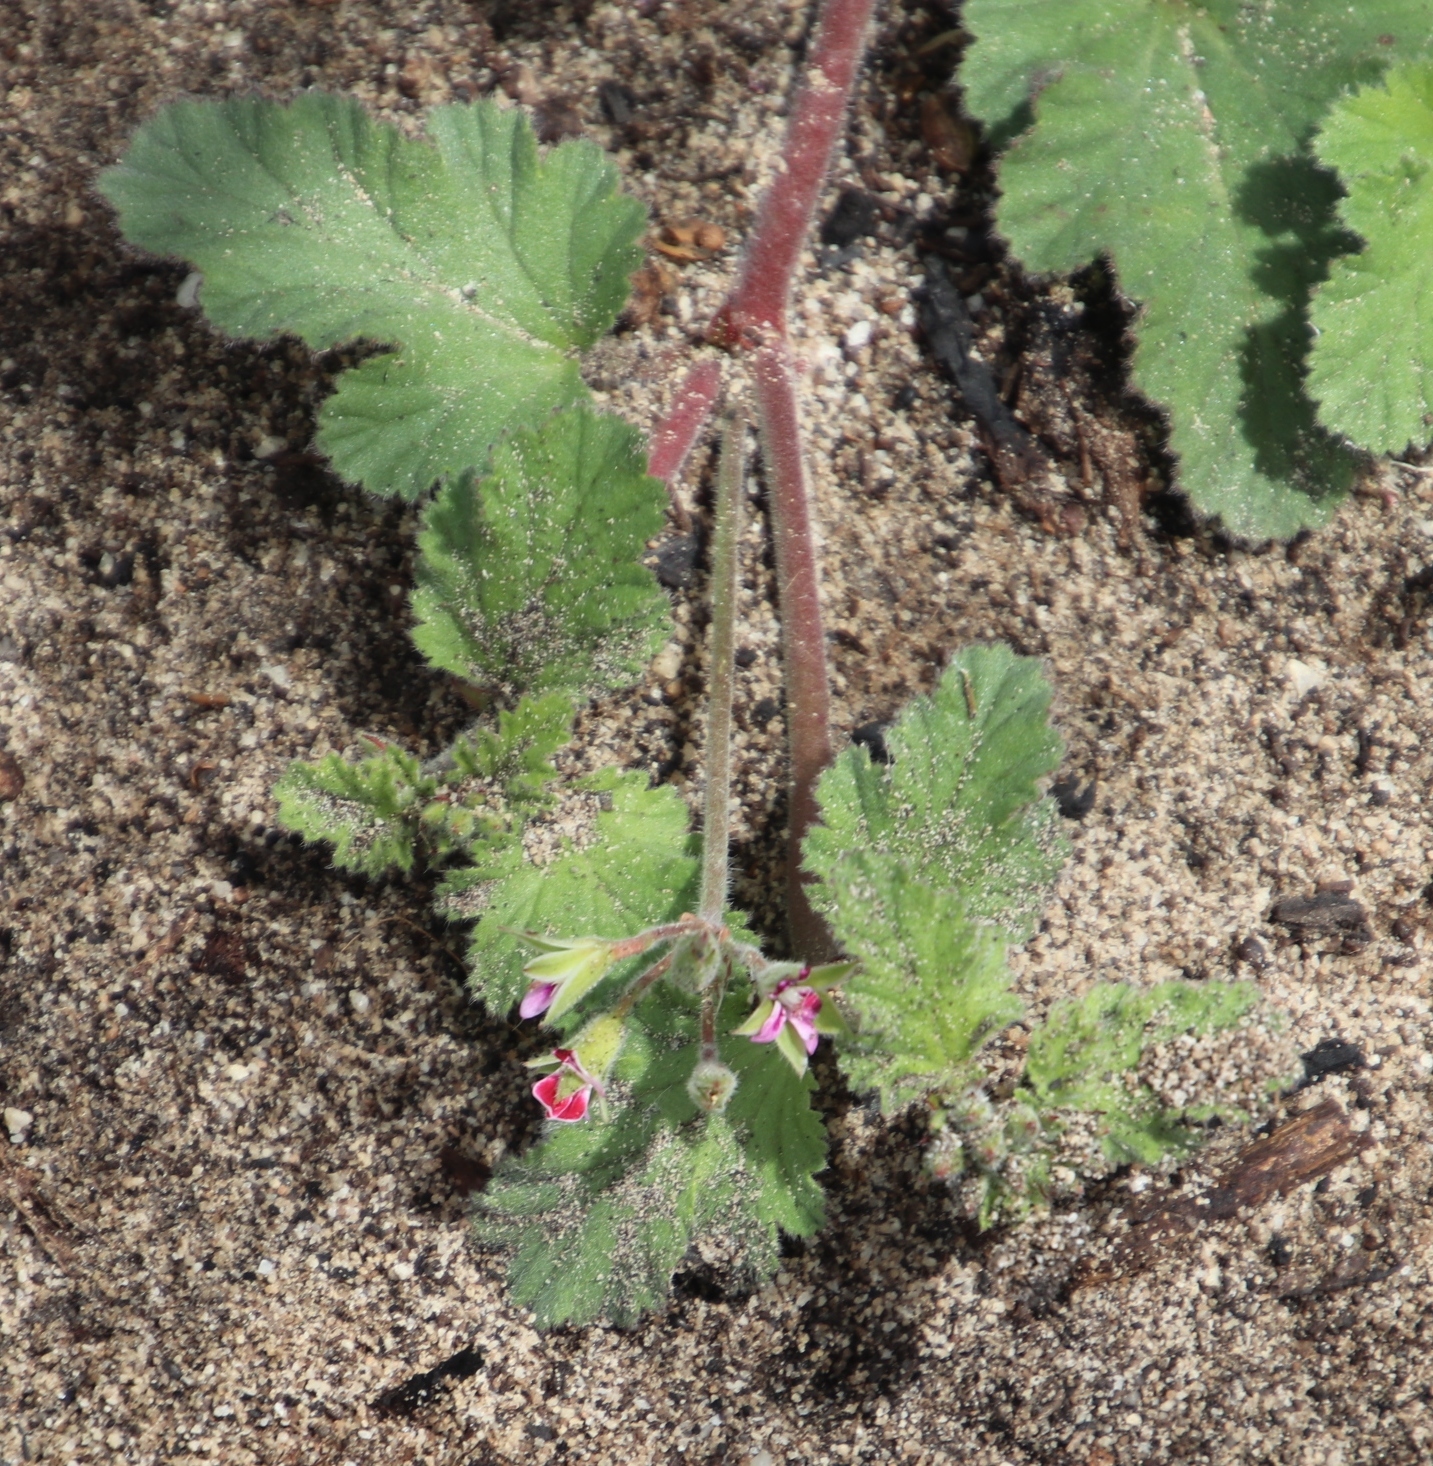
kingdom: Plantae
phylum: Tracheophyta
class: Magnoliopsida
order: Geraniales
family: Geraniaceae
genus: Pelargonium
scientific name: Pelargonium althaeoides
